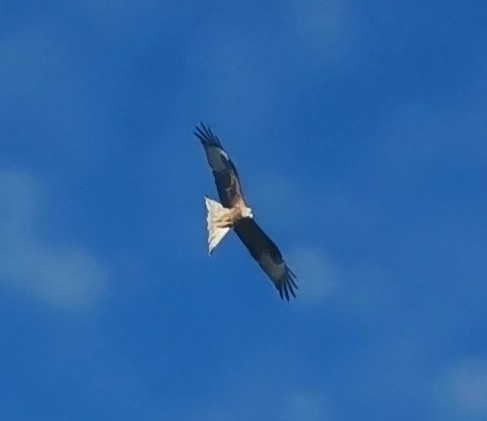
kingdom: Animalia
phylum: Chordata
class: Aves
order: Accipitriformes
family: Accipitridae
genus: Milvus
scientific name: Milvus milvus
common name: Red kite
